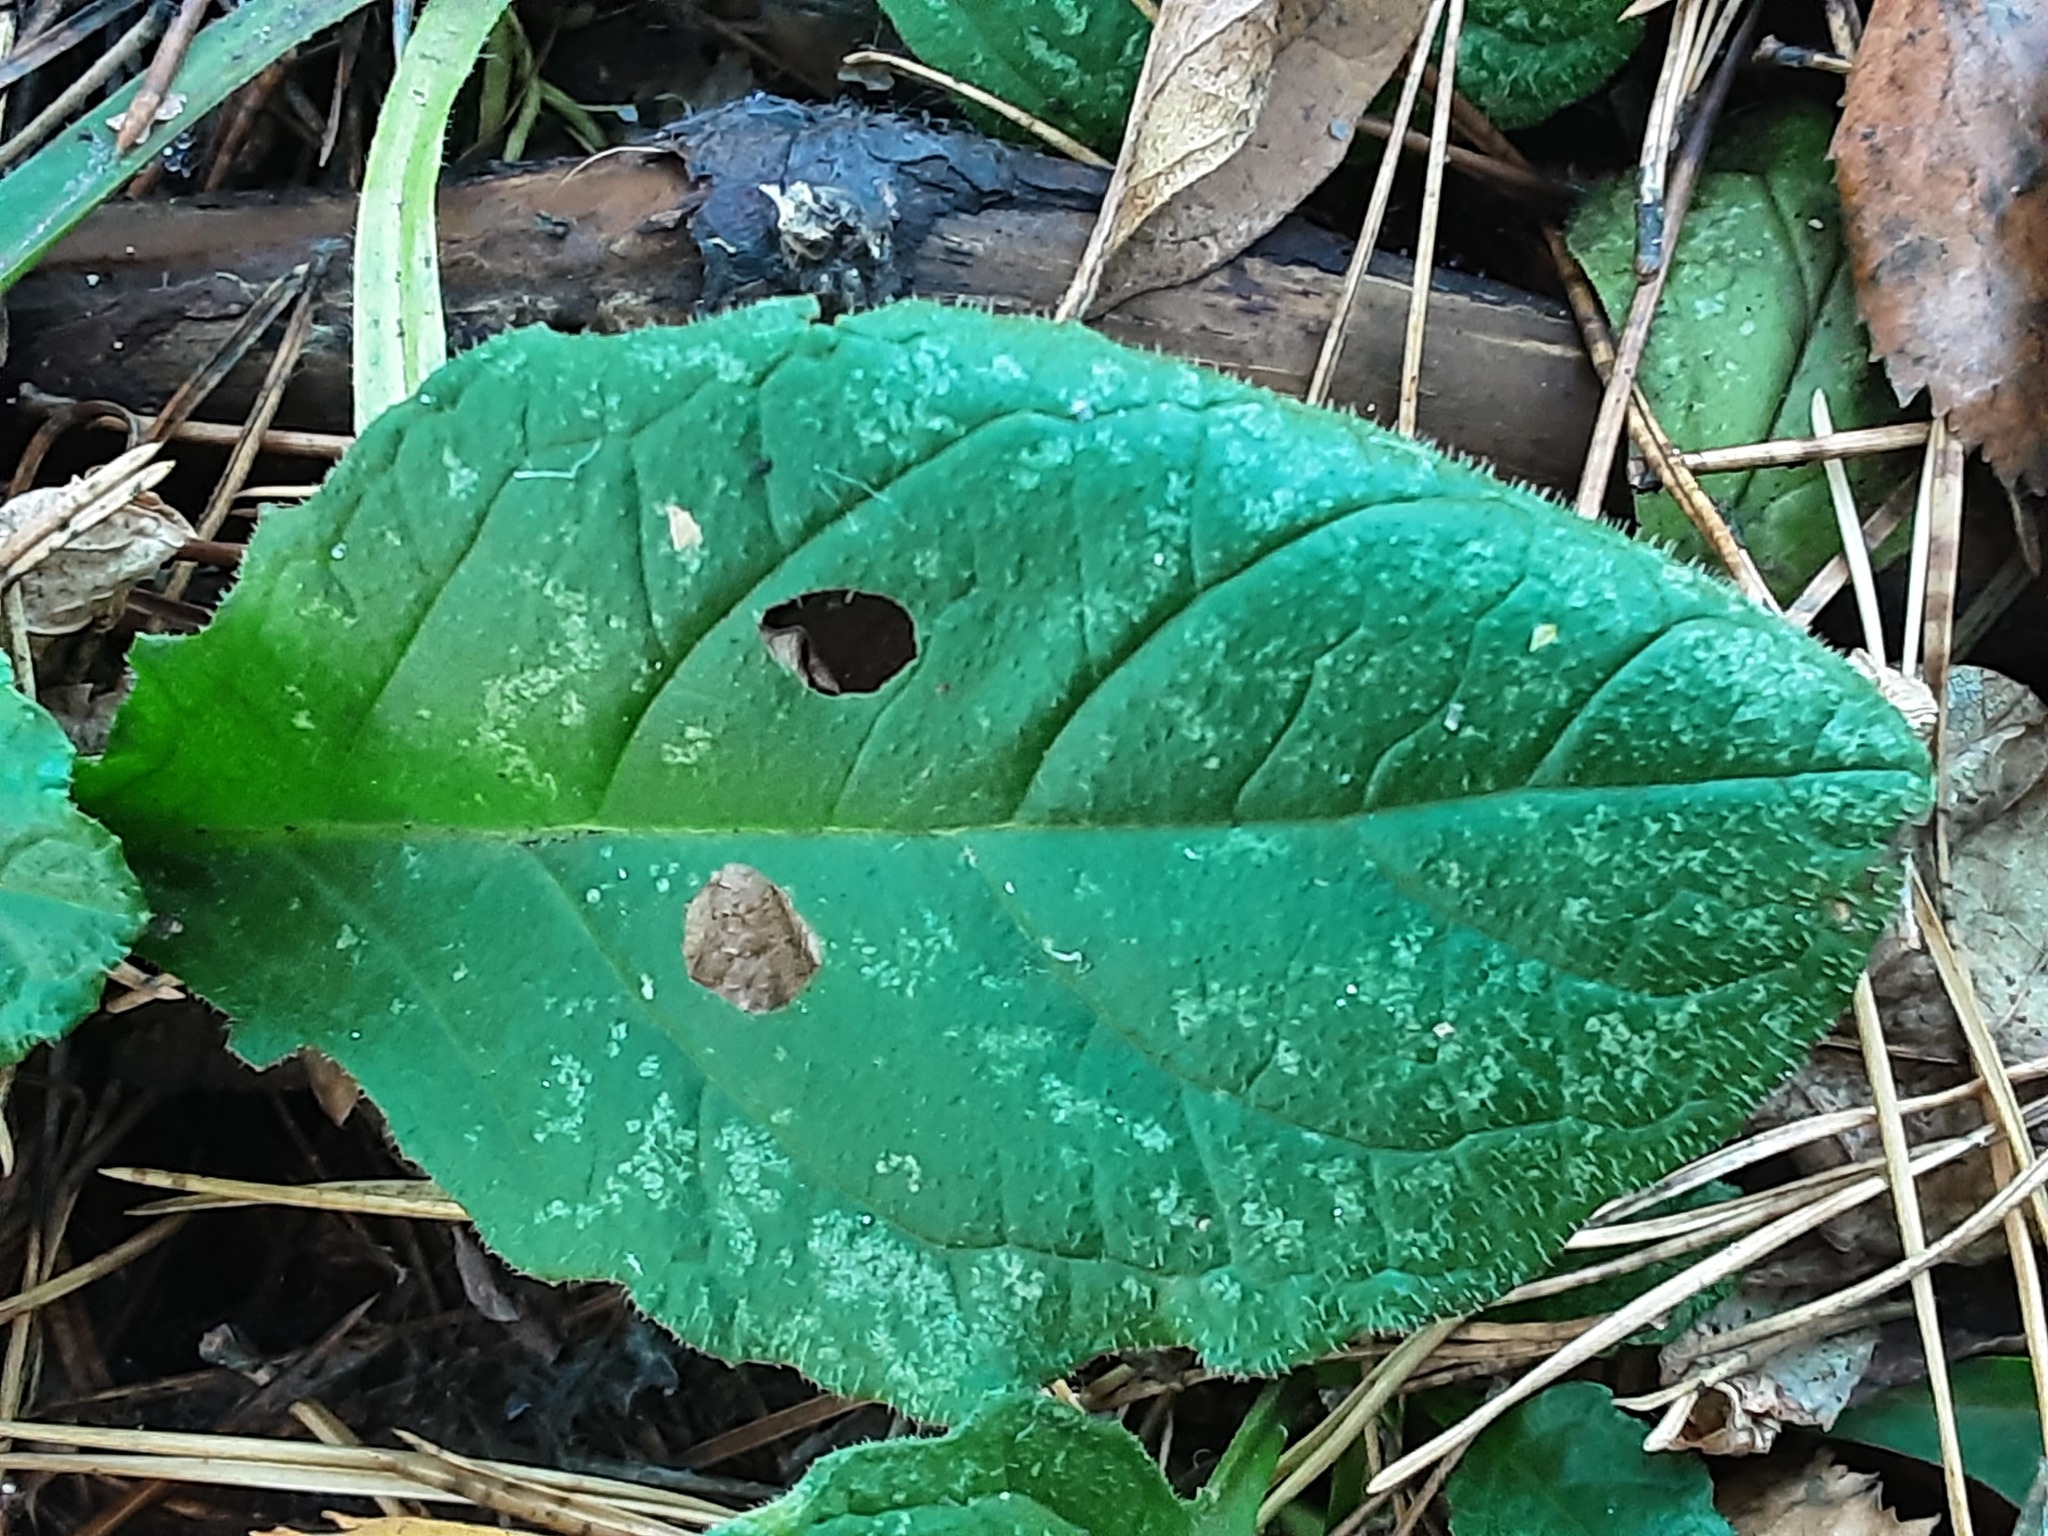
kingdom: Plantae
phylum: Tracheophyta
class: Magnoliopsida
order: Lamiales
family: Lamiaceae
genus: Ajuga
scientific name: Ajuga reptans
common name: Bugle
